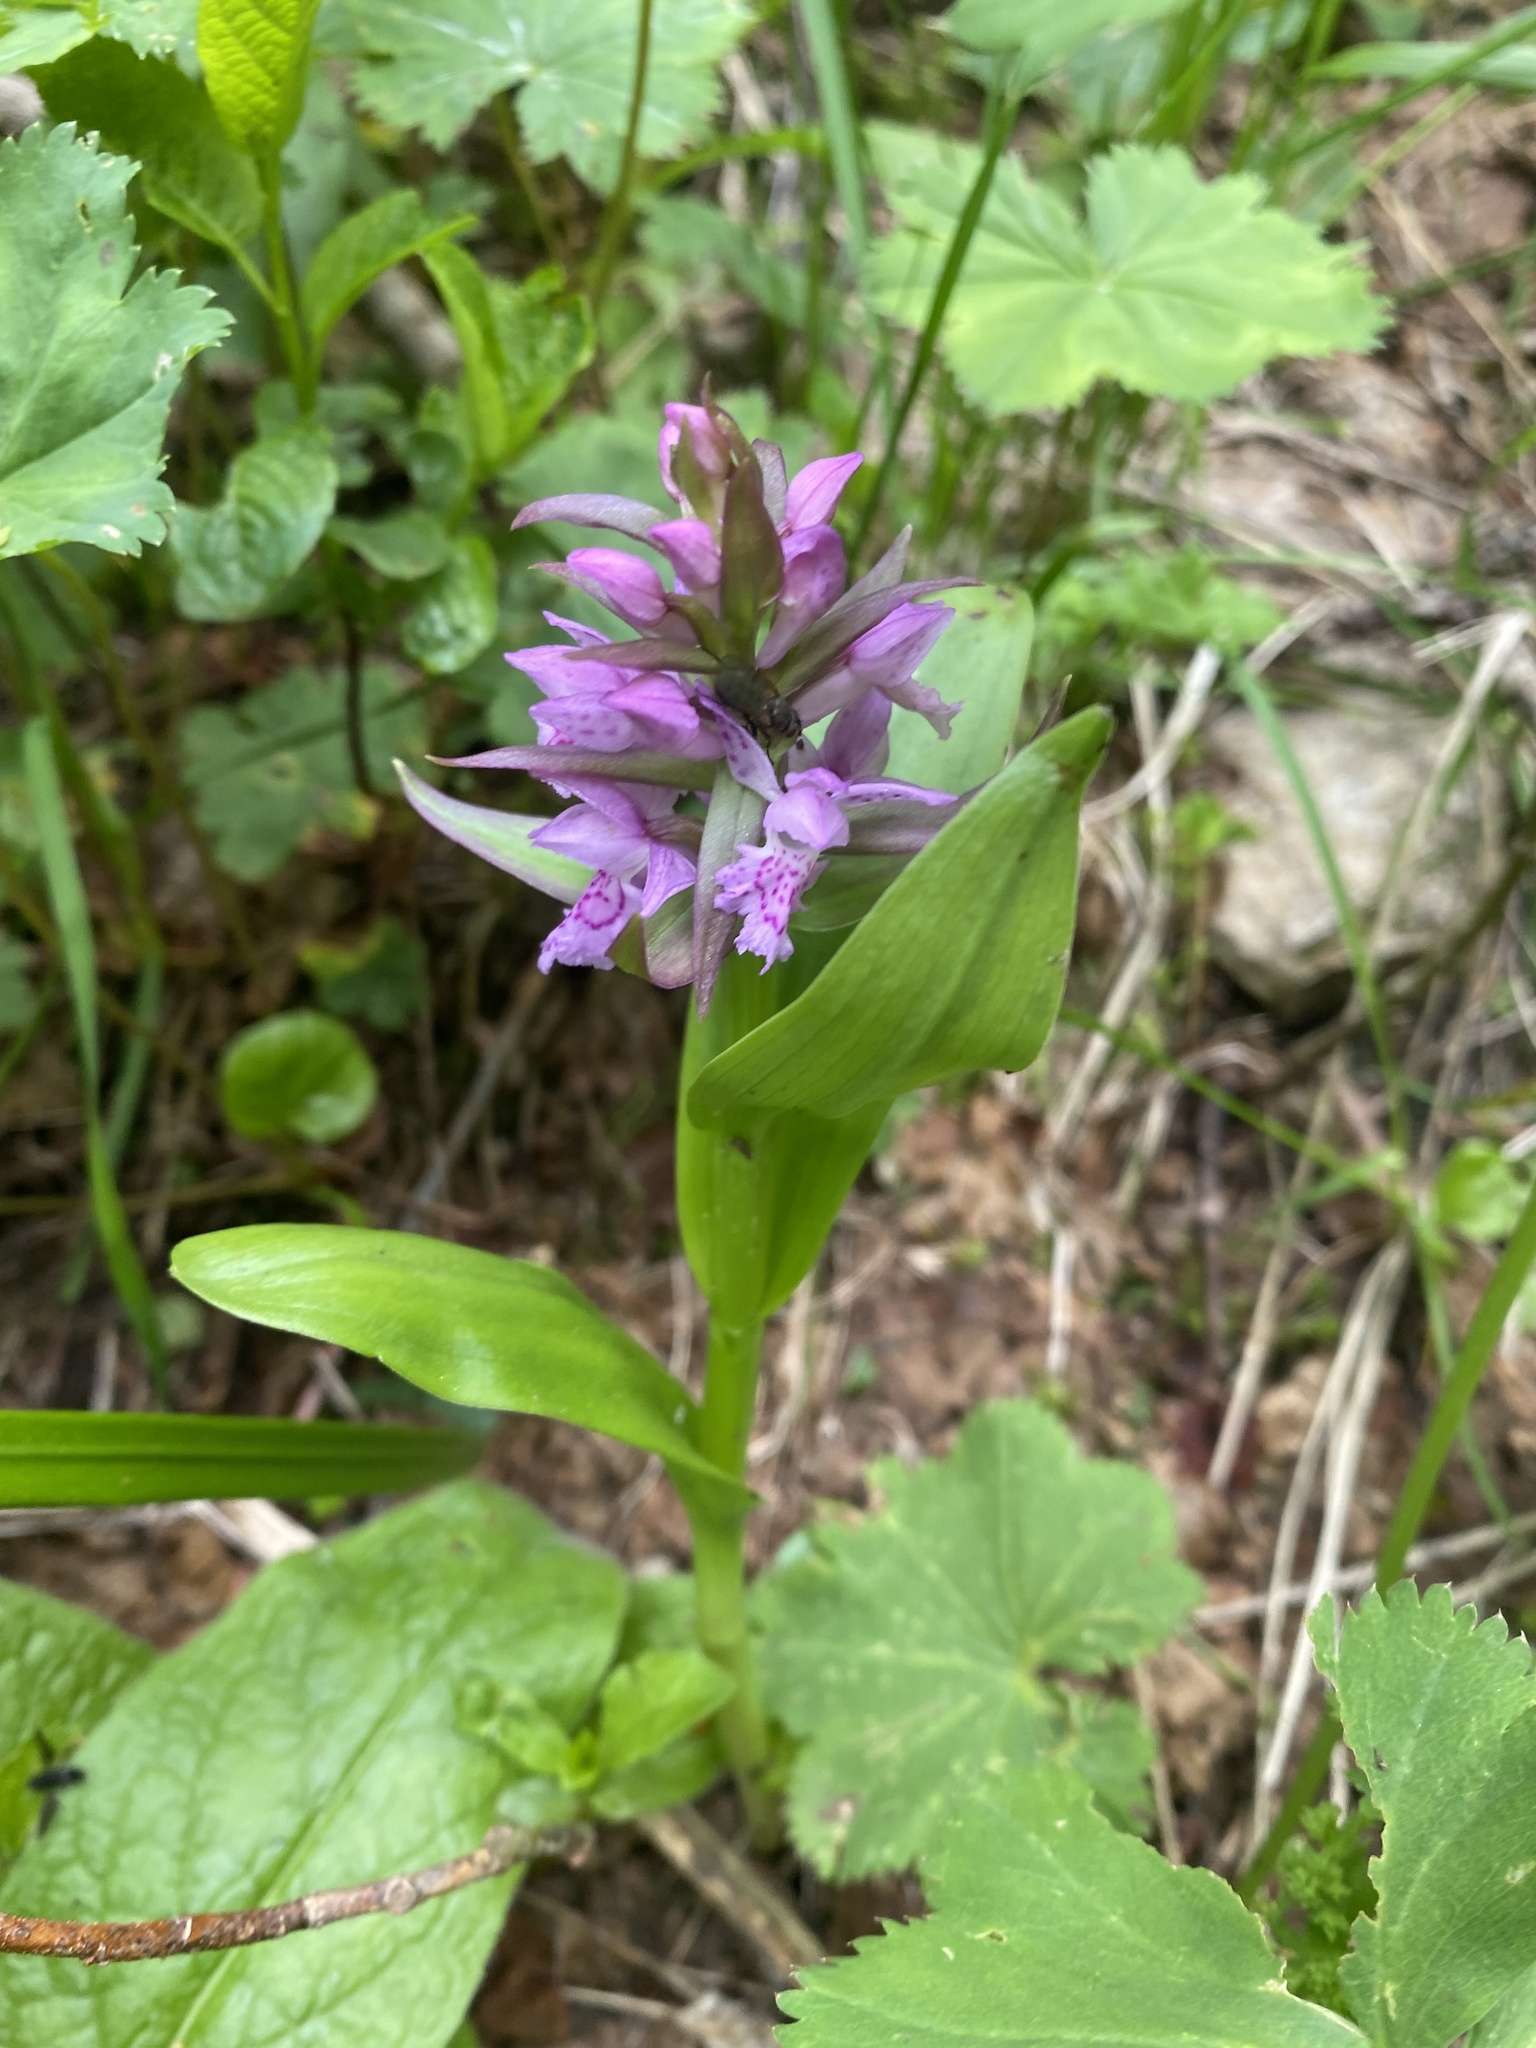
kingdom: Plantae
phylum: Tracheophyta
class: Liliopsida
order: Asparagales
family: Orchidaceae
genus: Dactylorhiza
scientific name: Dactylorhiza euxina
